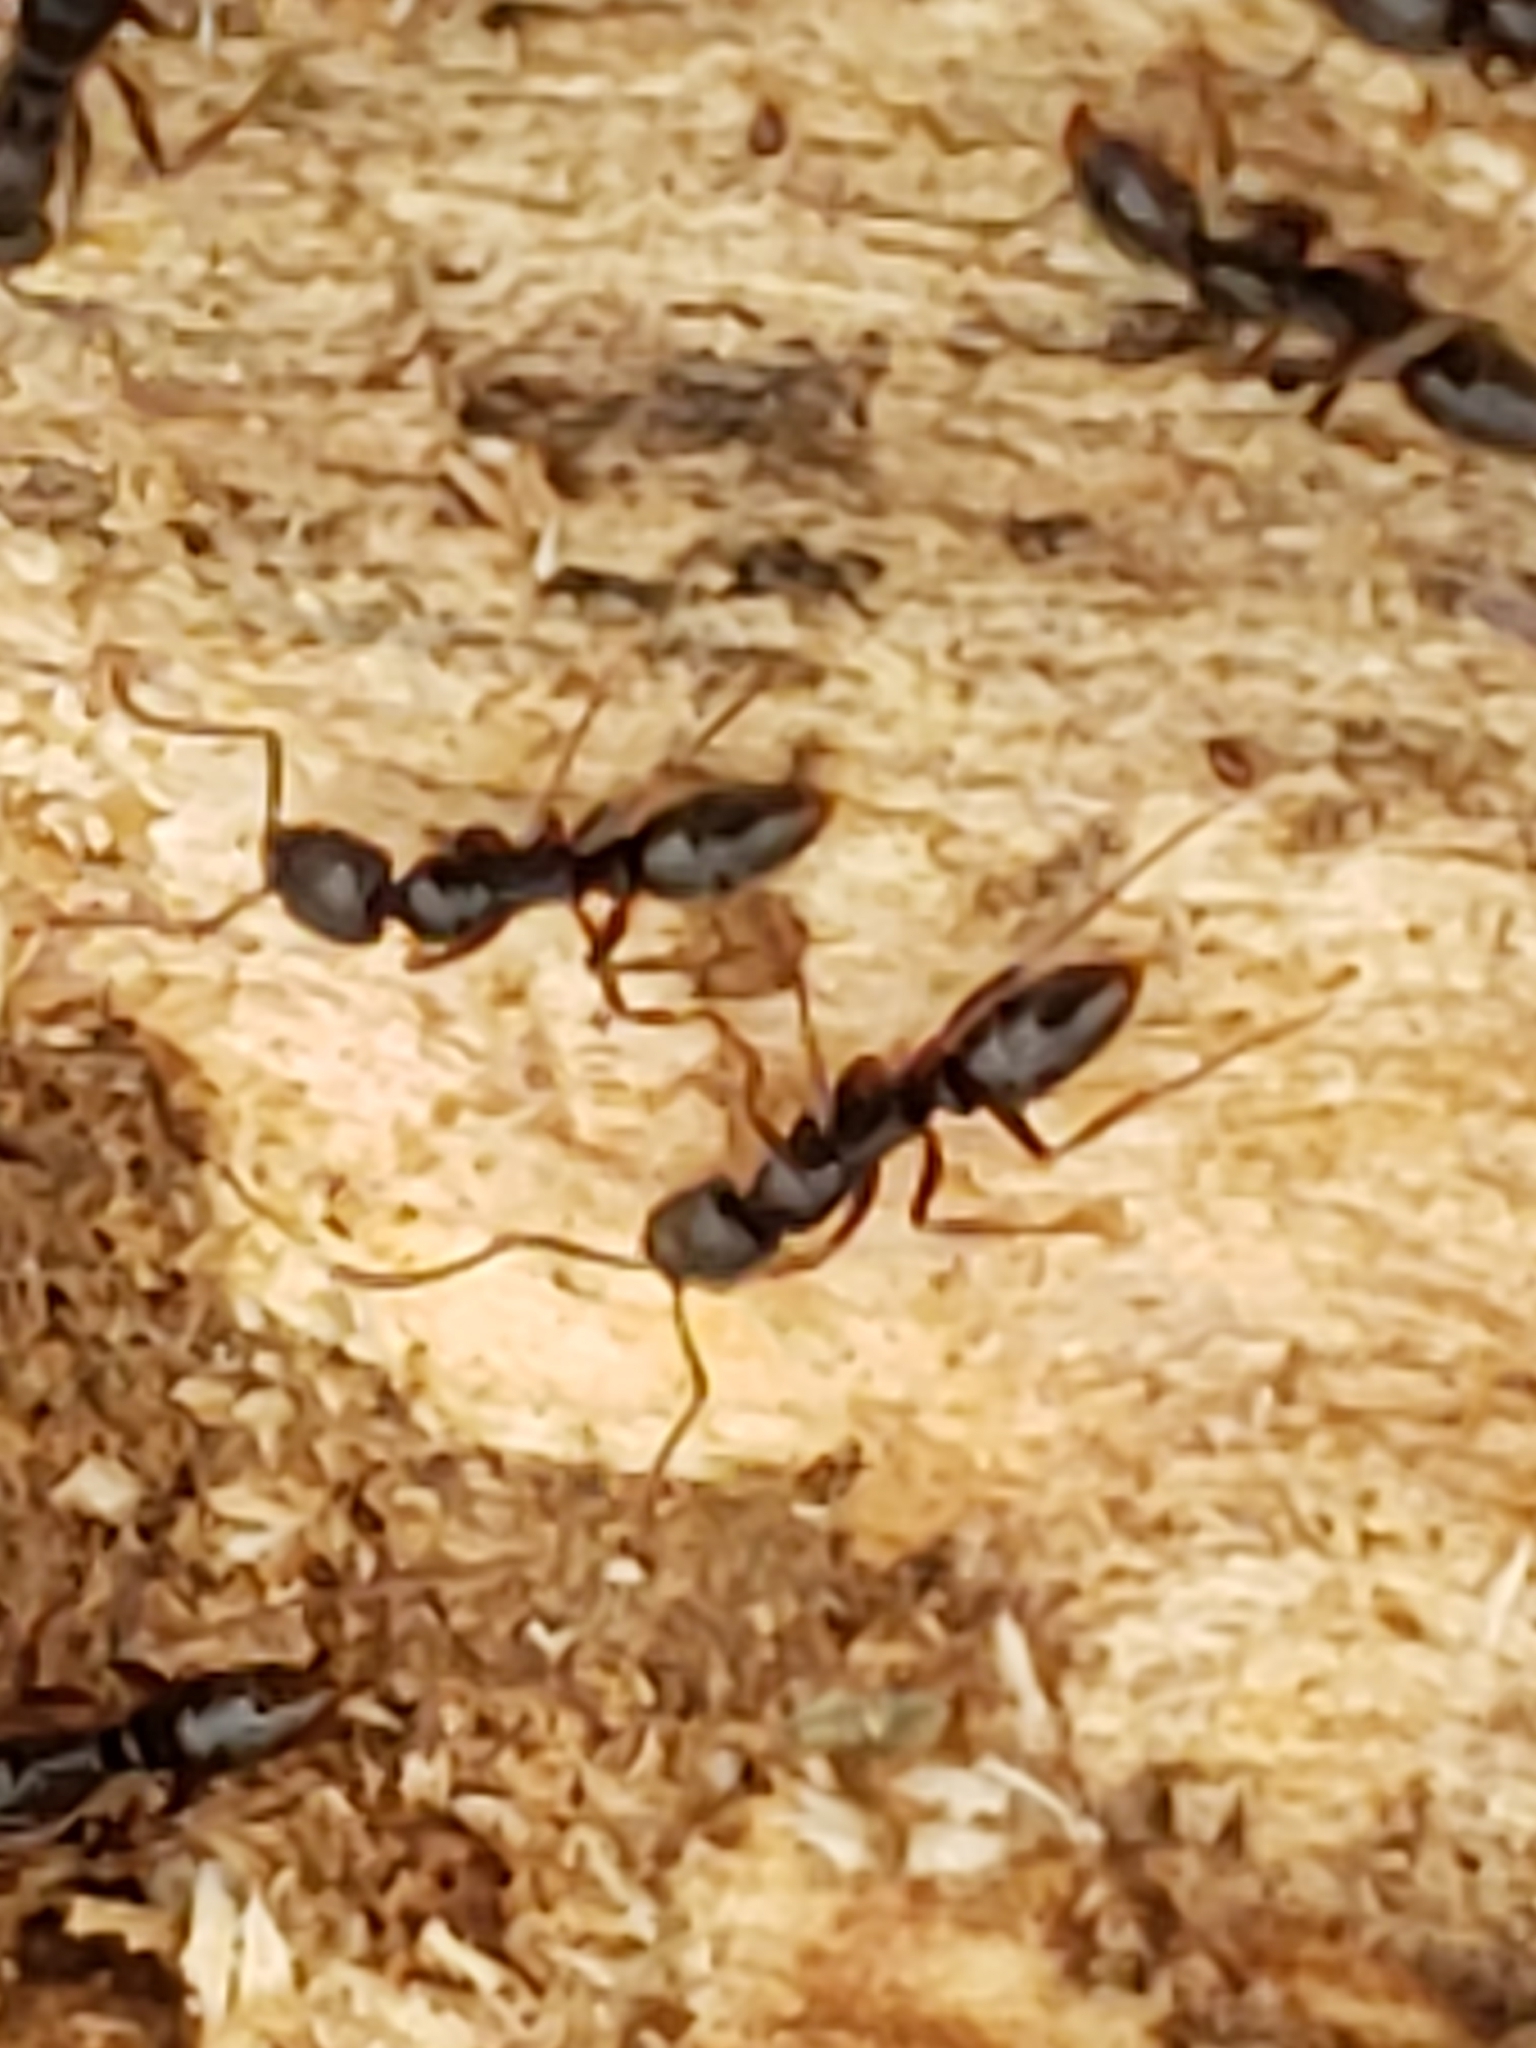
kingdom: Animalia
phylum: Arthropoda
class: Insecta
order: Hymenoptera
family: Formicidae
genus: Pachycondyla
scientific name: Pachycondyla chinensis
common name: Asian needle ant
